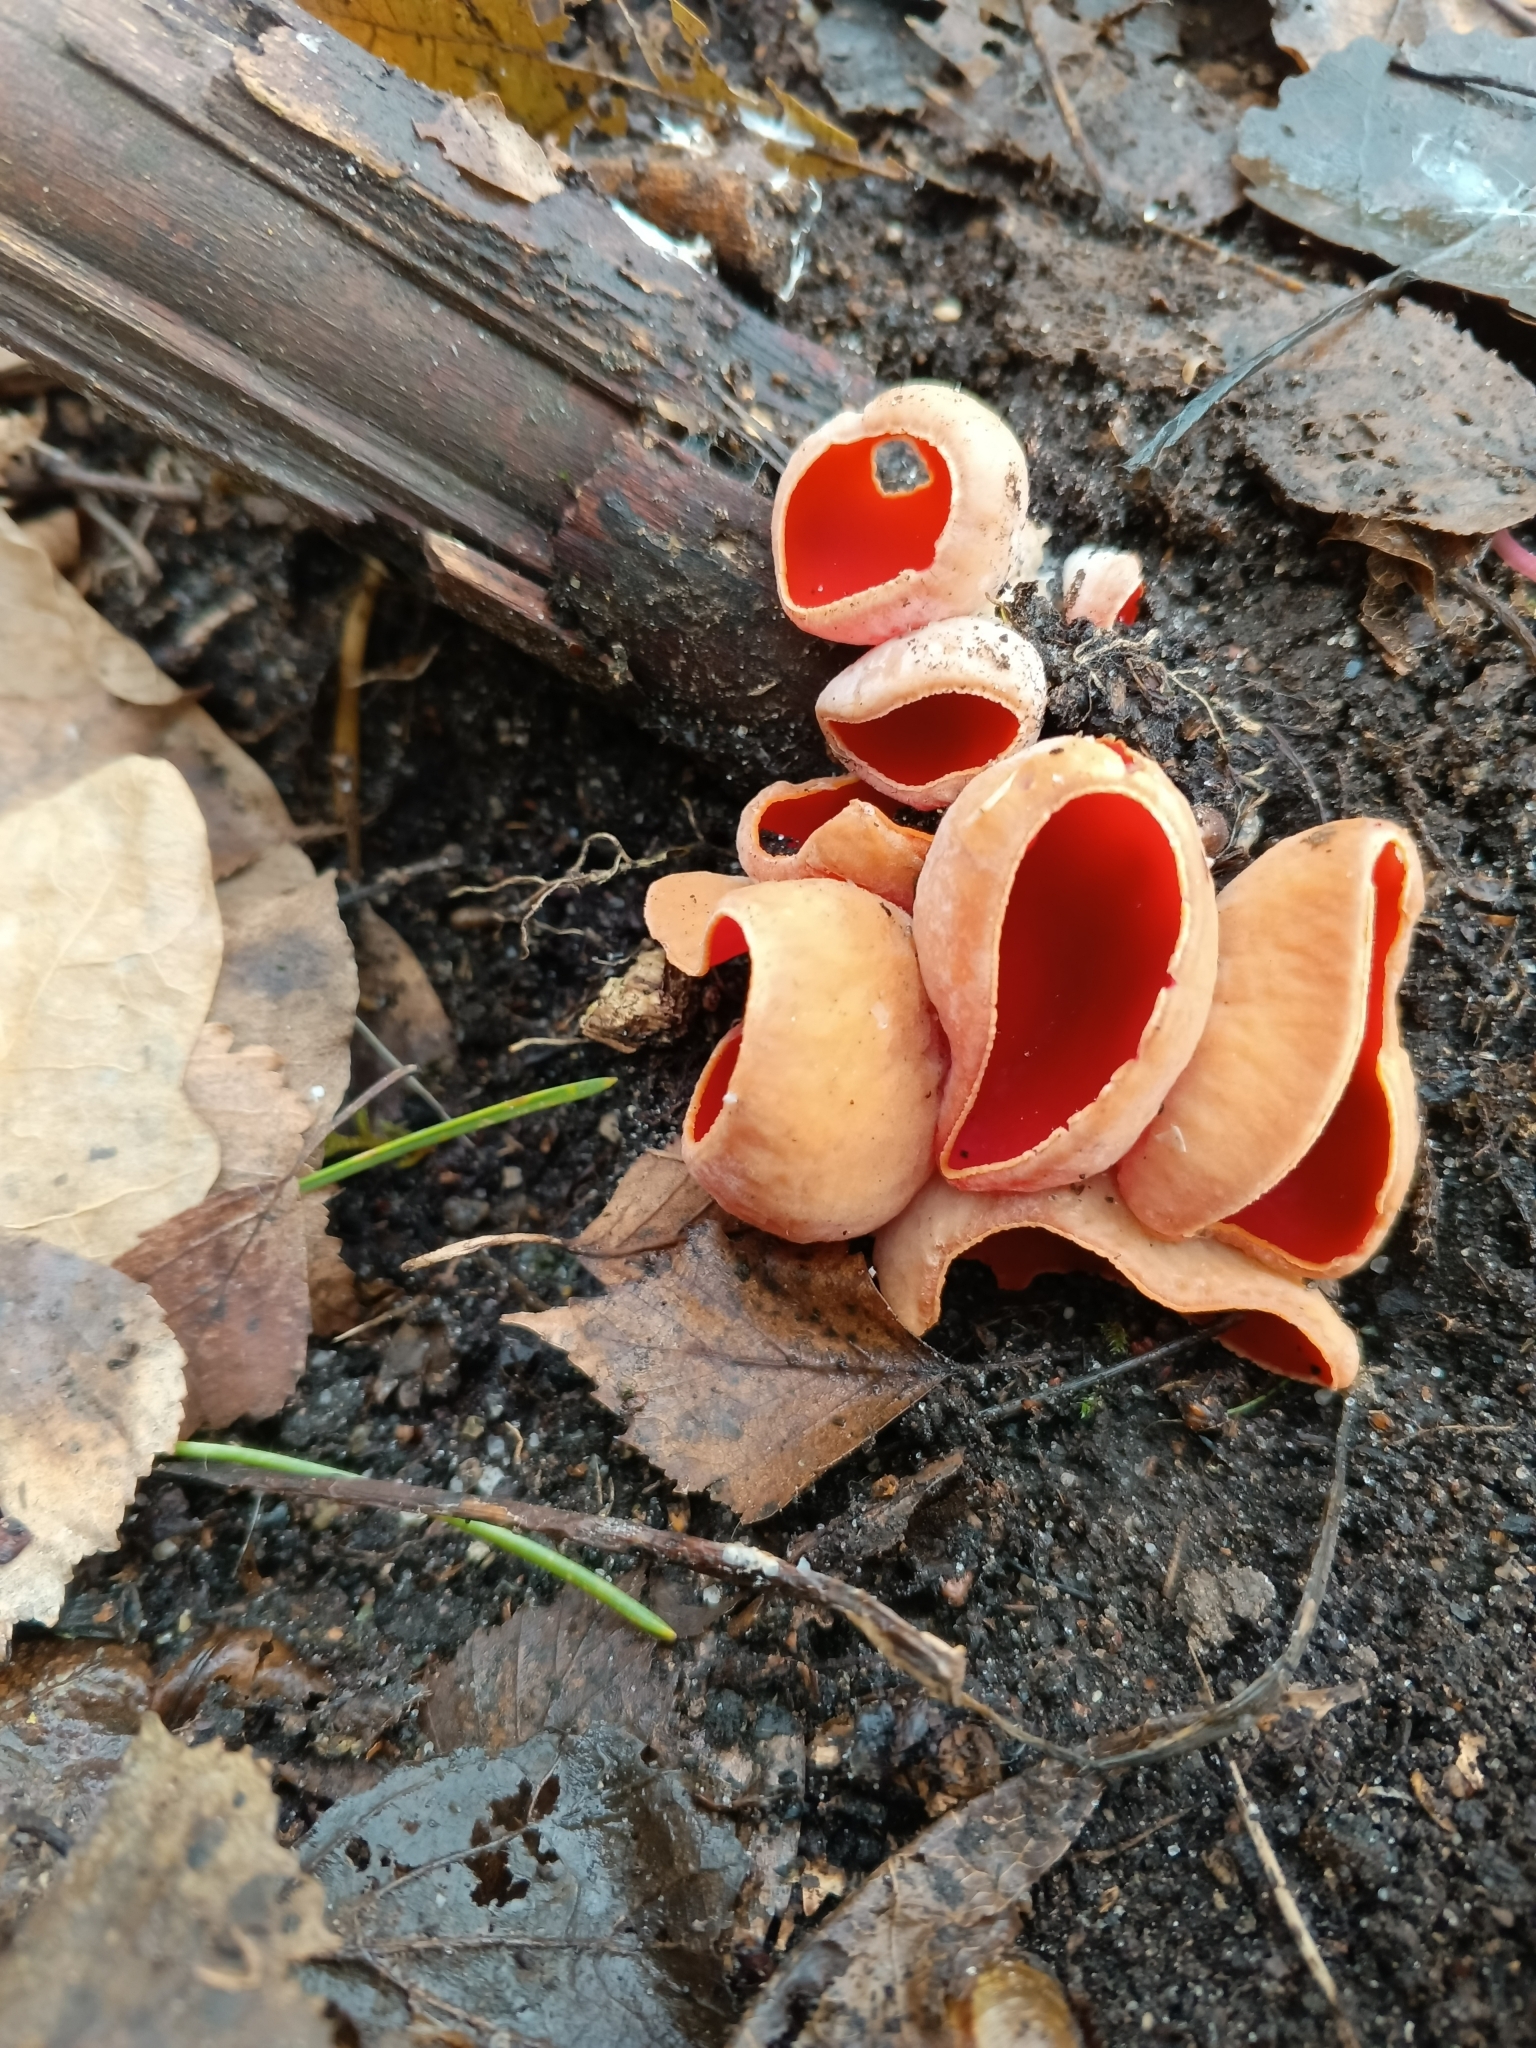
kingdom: Fungi
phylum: Ascomycota
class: Pezizomycetes
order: Pezizales
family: Sarcoscyphaceae
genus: Sarcoscypha
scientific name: Sarcoscypha
